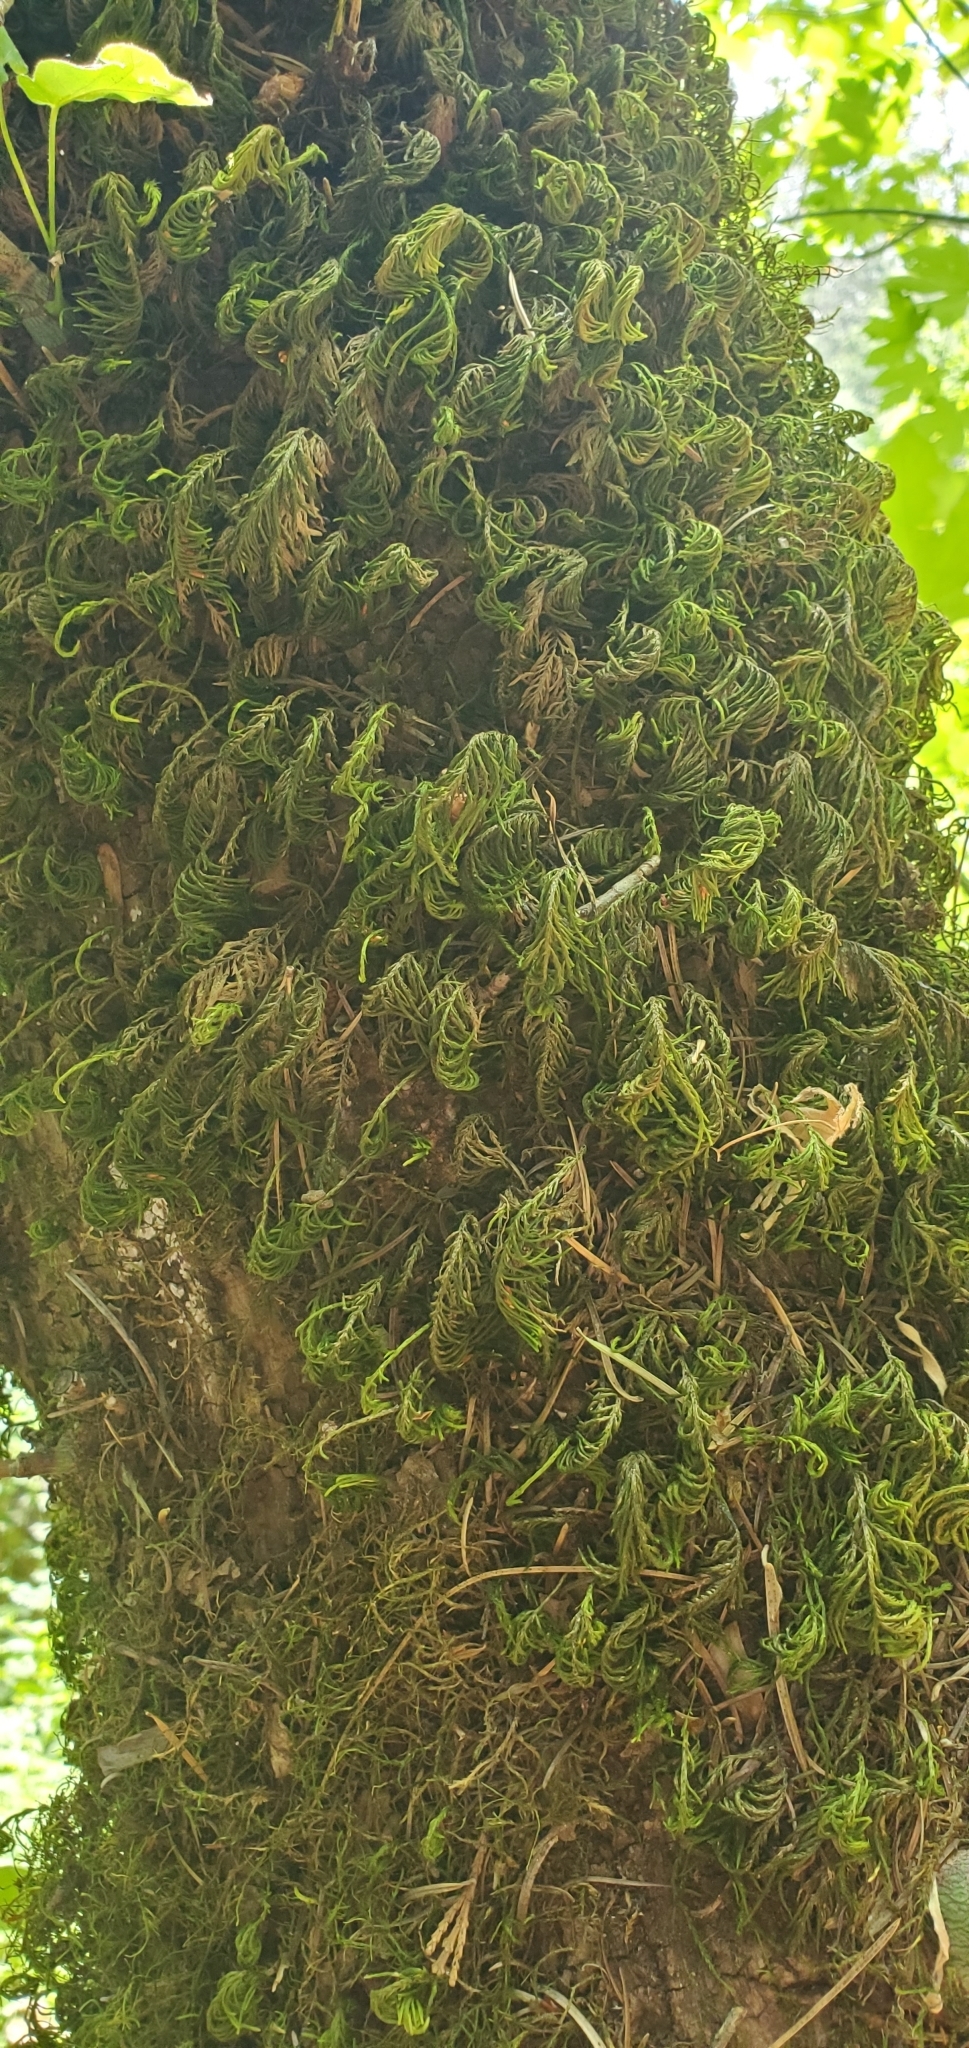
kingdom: Plantae
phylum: Bryophyta
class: Bryopsida
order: Hypnales
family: Cryphaeaceae
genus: Dendroalsia
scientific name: Dendroalsia abietina
